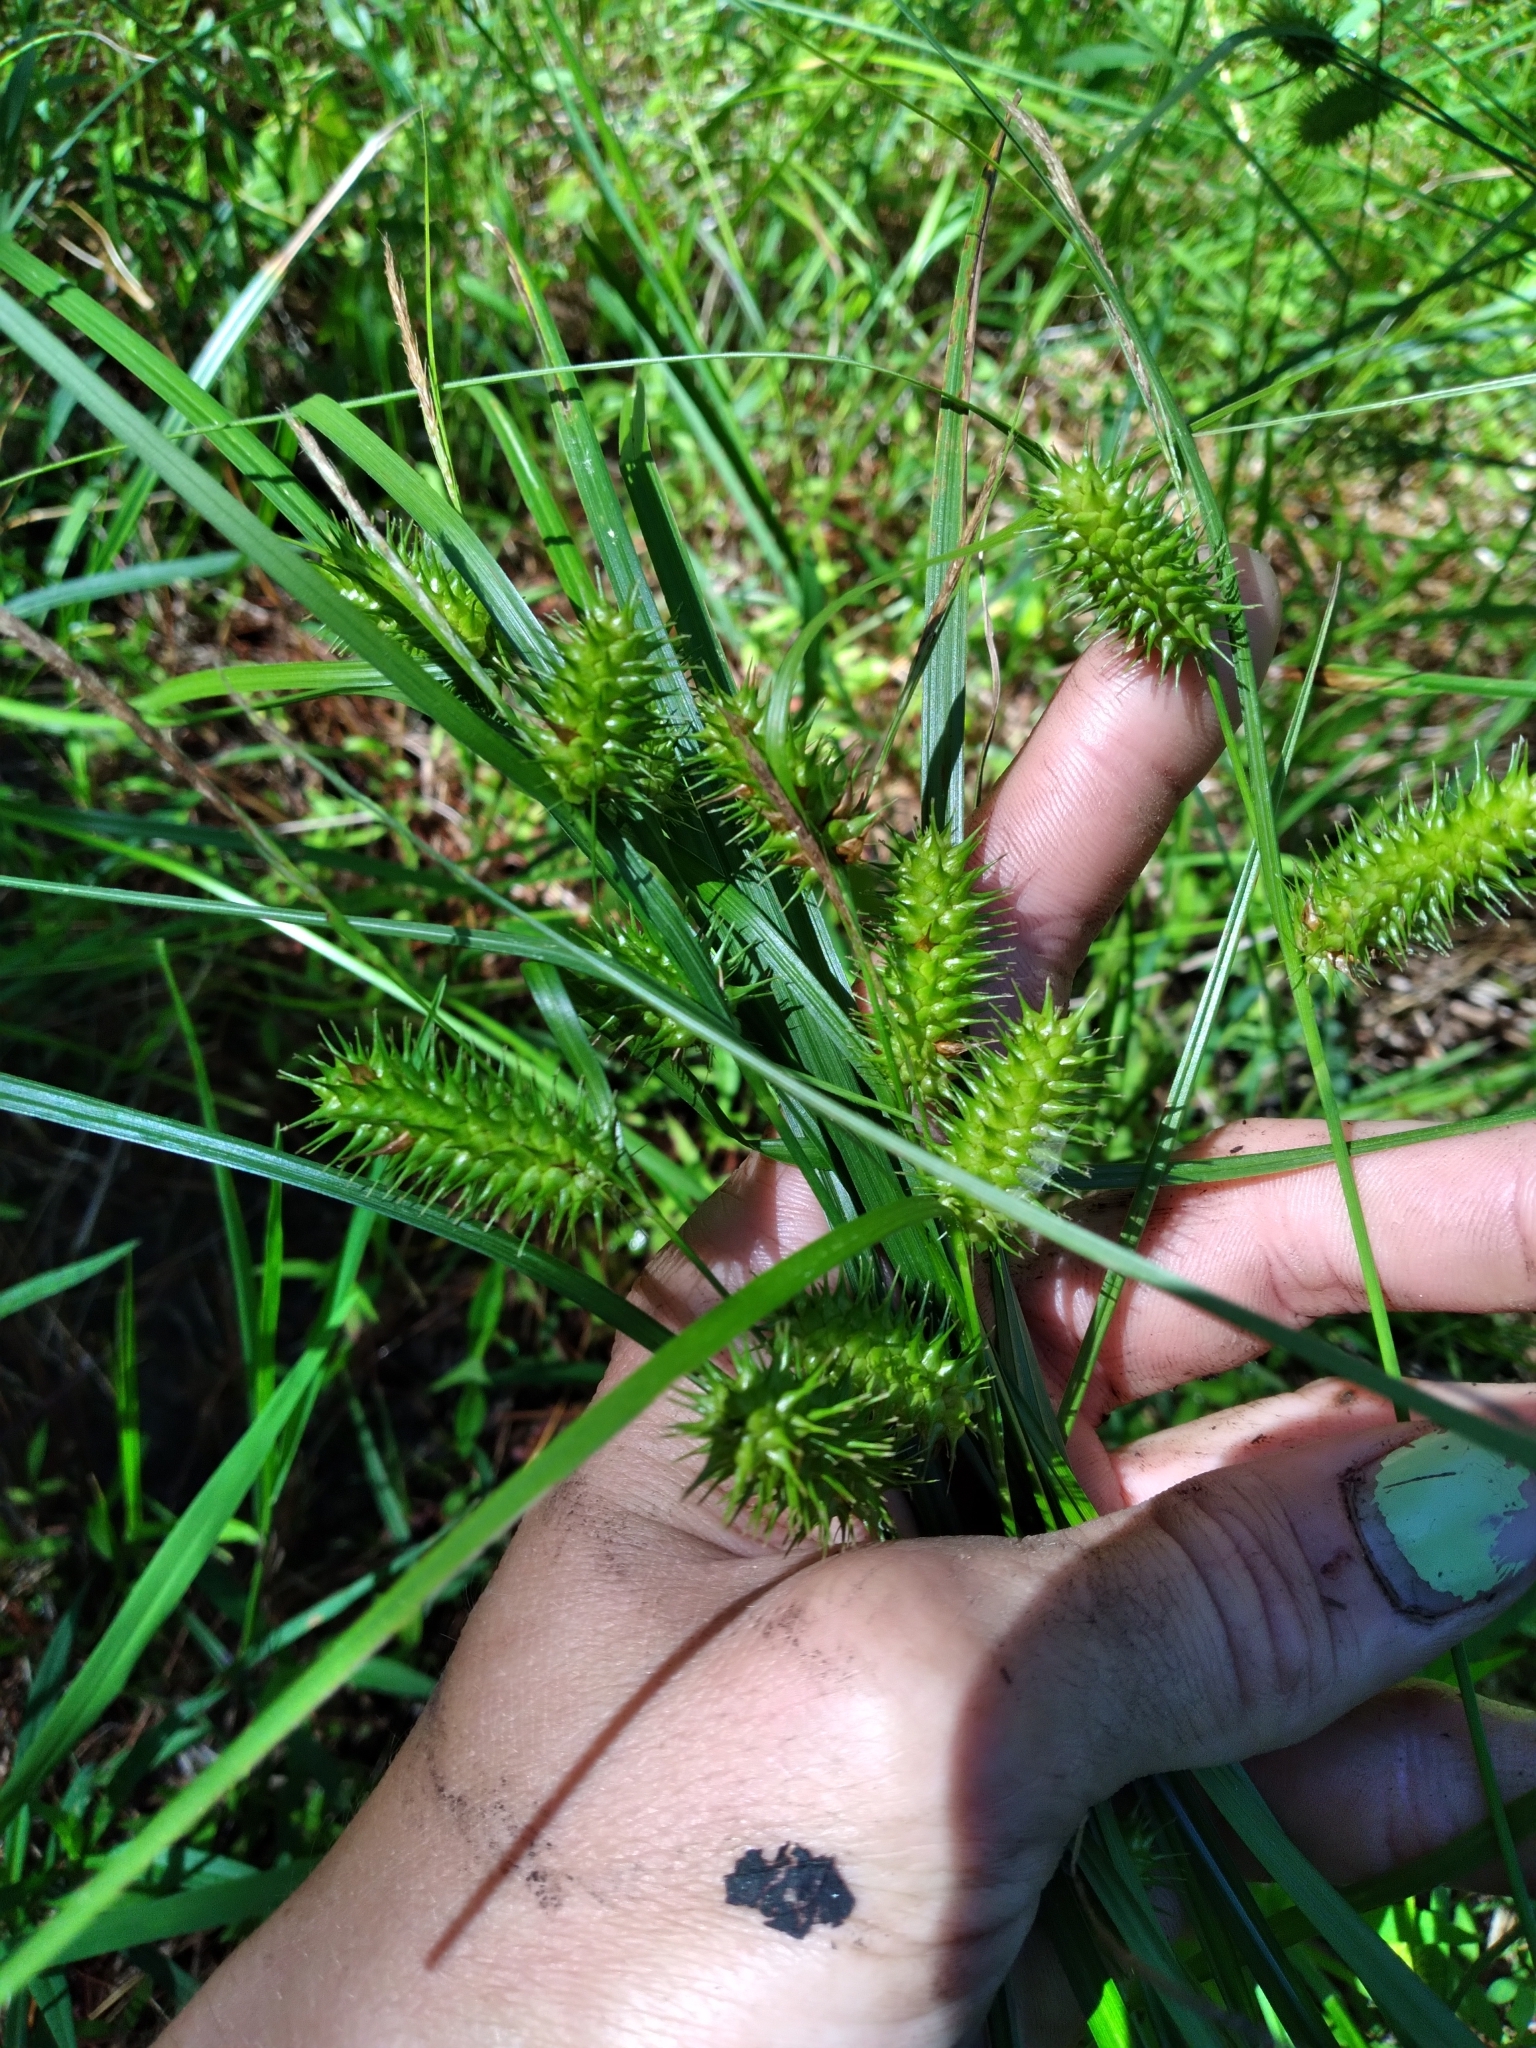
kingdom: Plantae
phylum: Tracheophyta
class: Liliopsida
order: Poales
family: Cyperaceae
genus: Carex
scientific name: Carex lurida
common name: Sallow sedge
